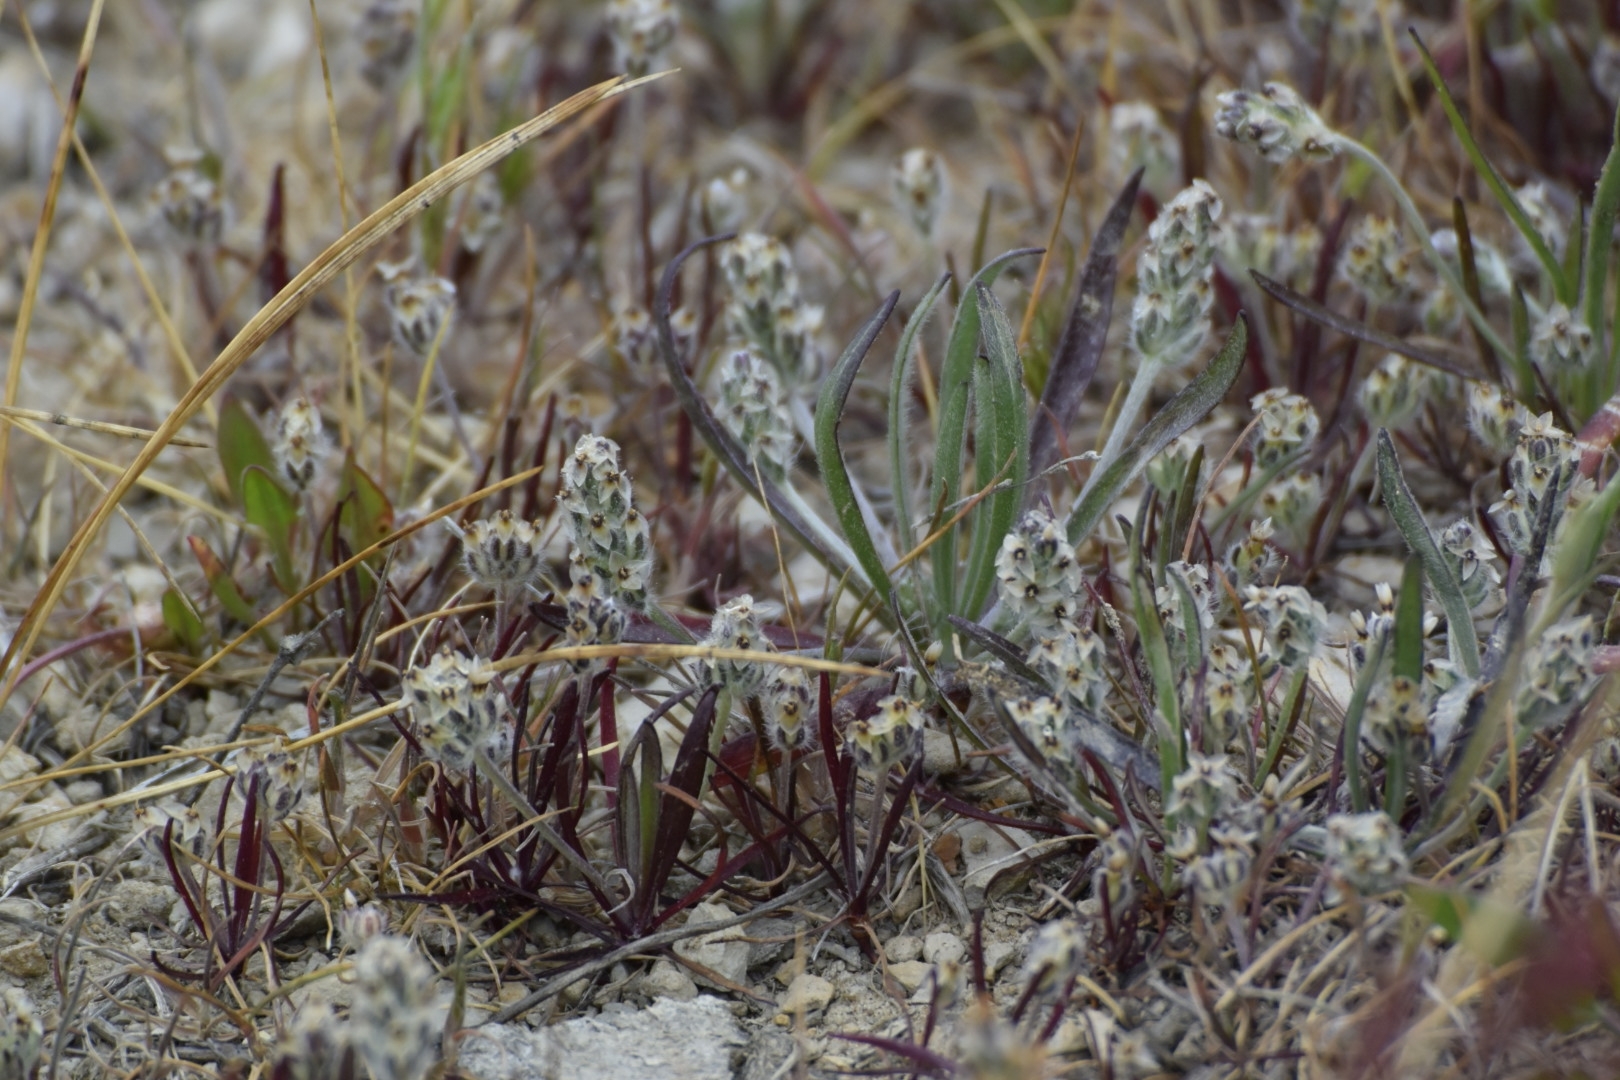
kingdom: Plantae
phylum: Tracheophyta
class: Magnoliopsida
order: Lamiales
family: Plantaginaceae
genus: Plantago
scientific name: Plantago erecta
